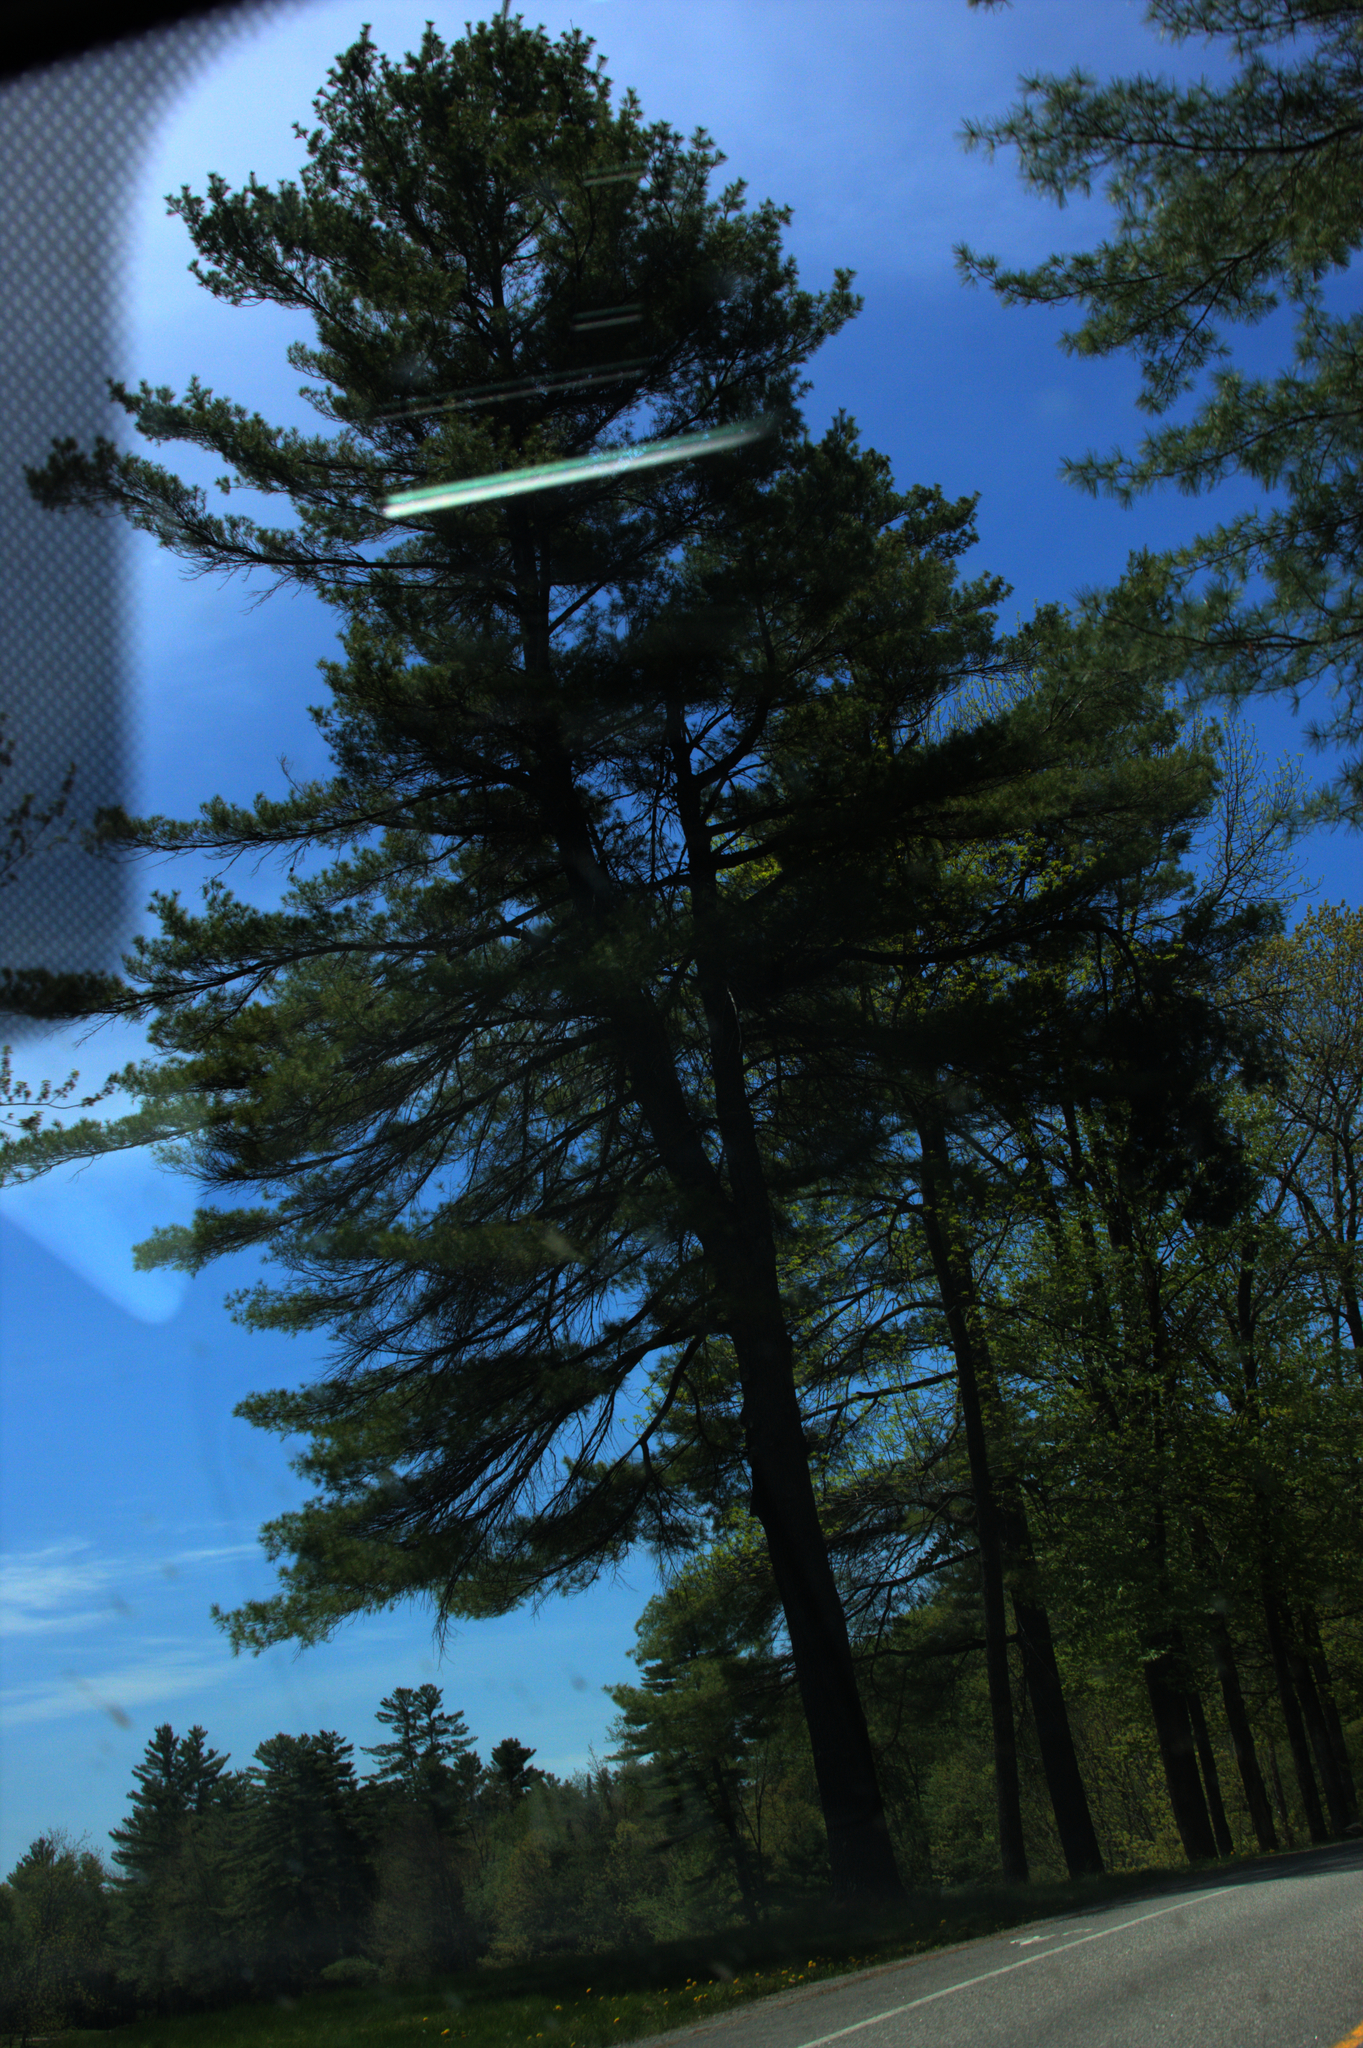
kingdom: Plantae
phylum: Tracheophyta
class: Pinopsida
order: Pinales
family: Pinaceae
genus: Pinus
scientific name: Pinus strobus
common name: Weymouth pine
